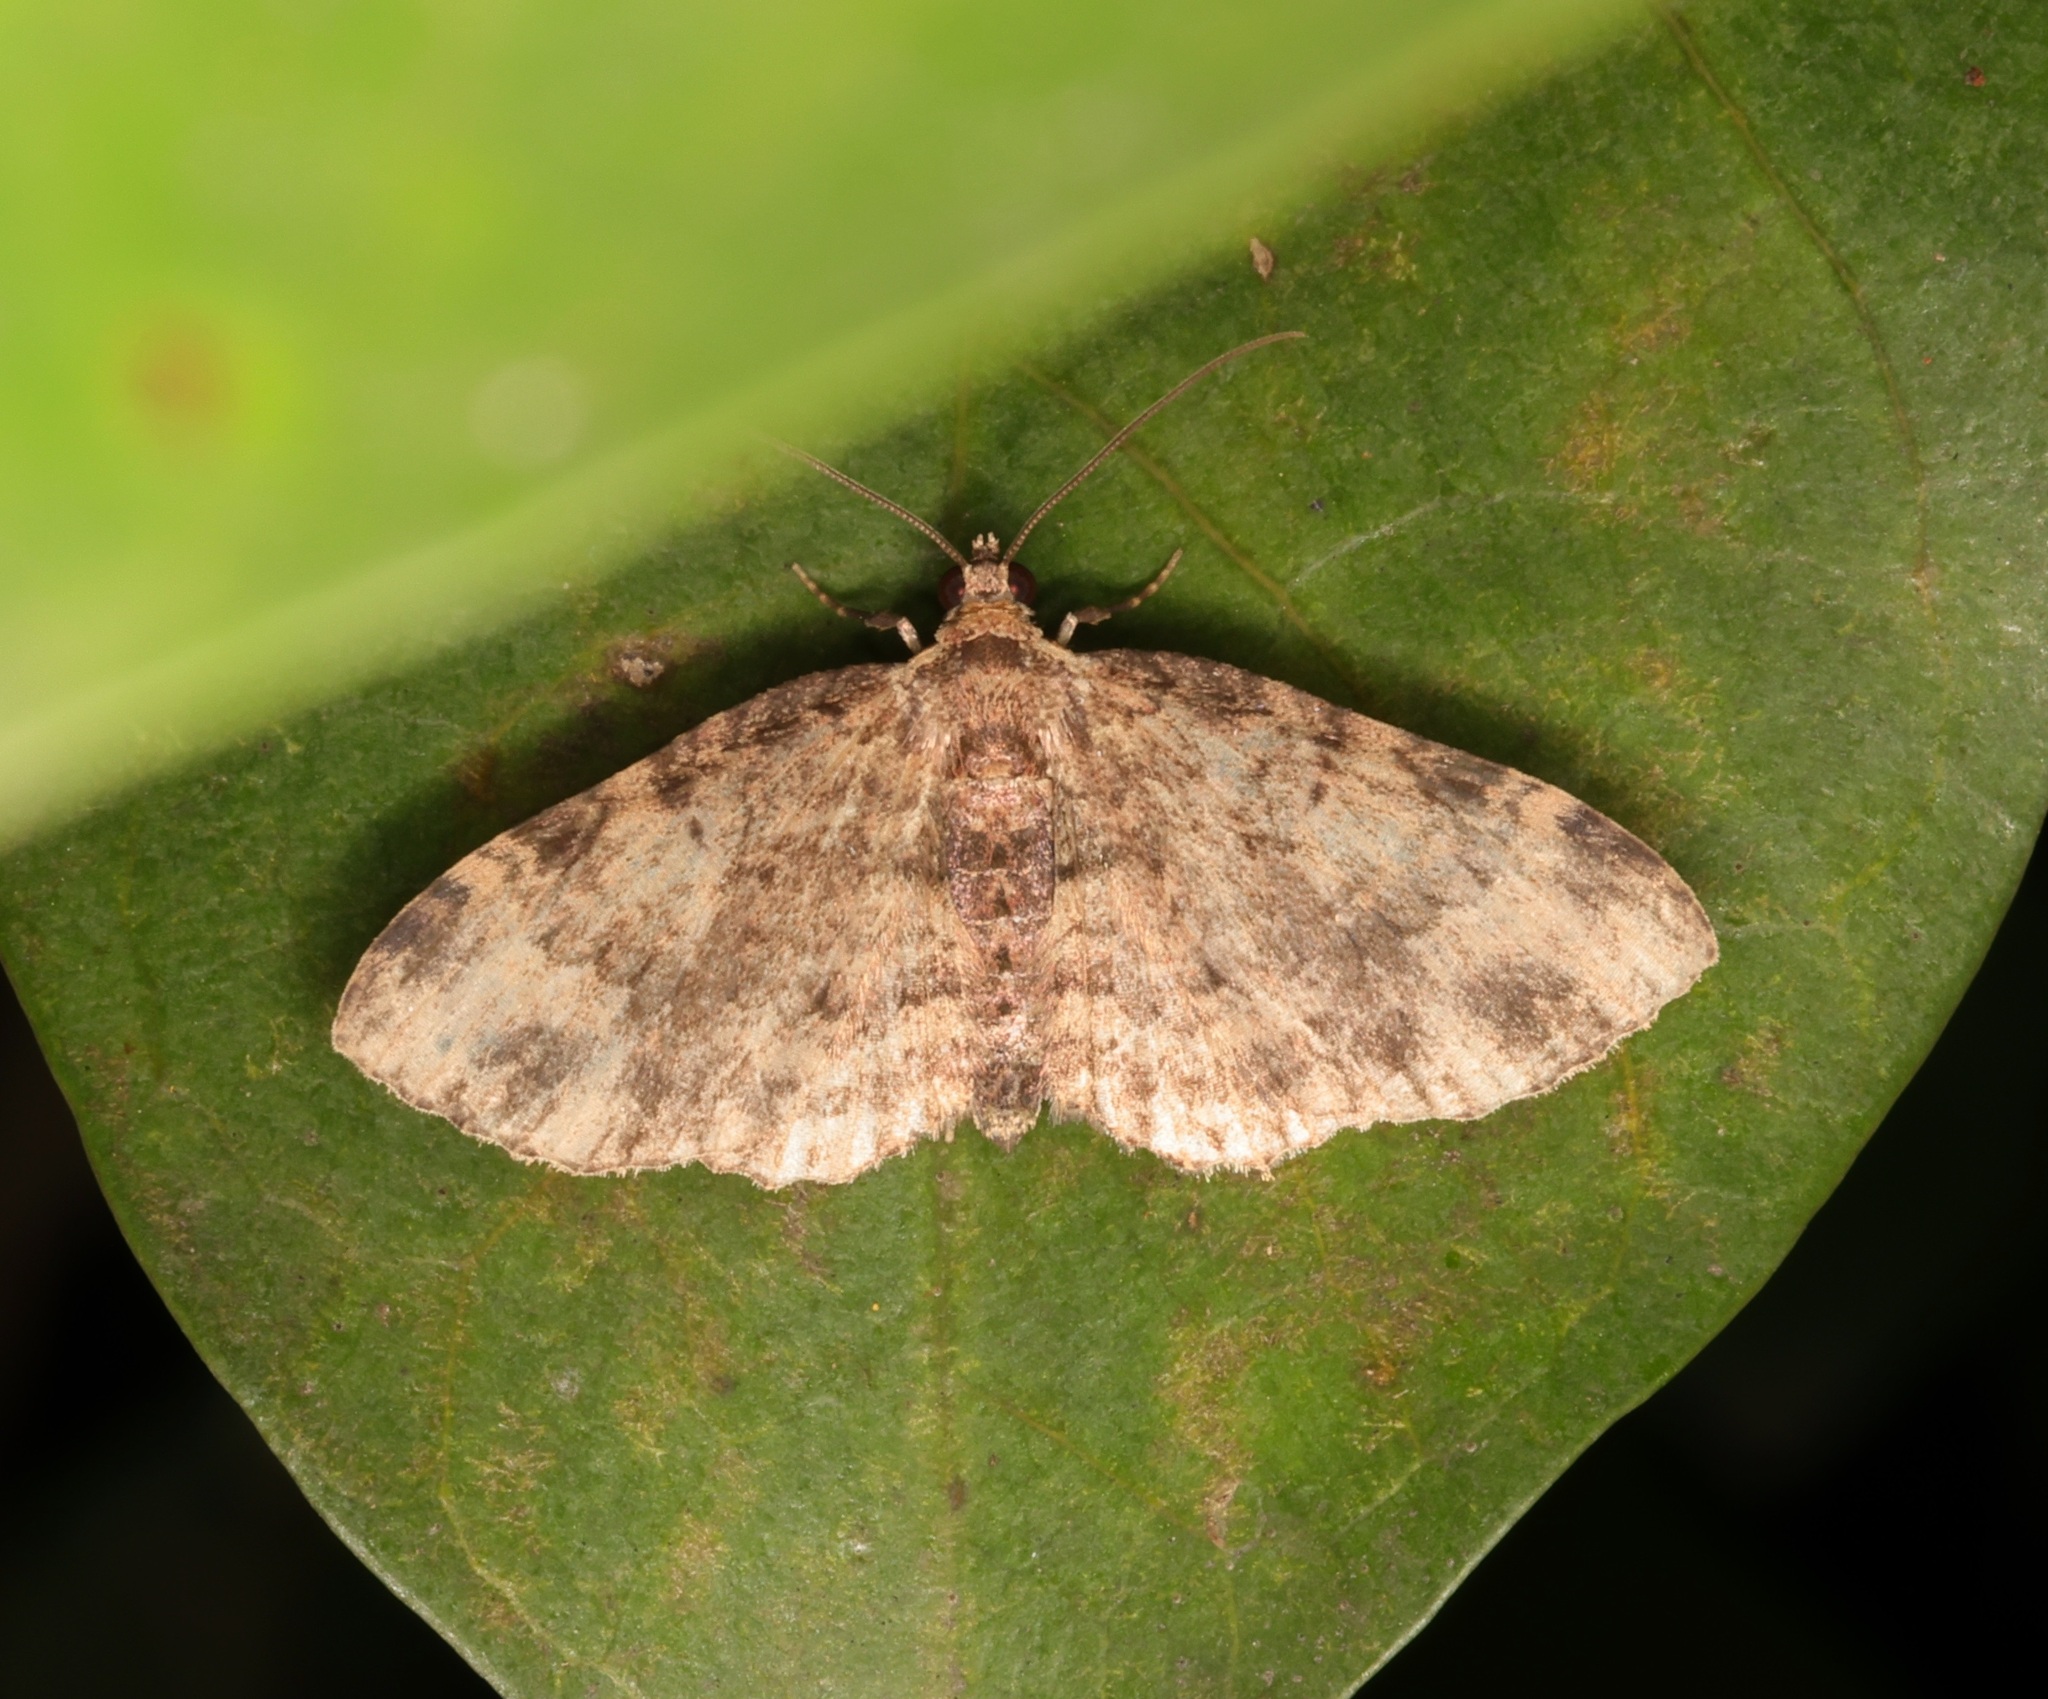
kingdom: Animalia
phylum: Arthropoda
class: Insecta
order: Lepidoptera
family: Geometridae
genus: Pseudocollix
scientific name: Pseudocollix hyperythra
